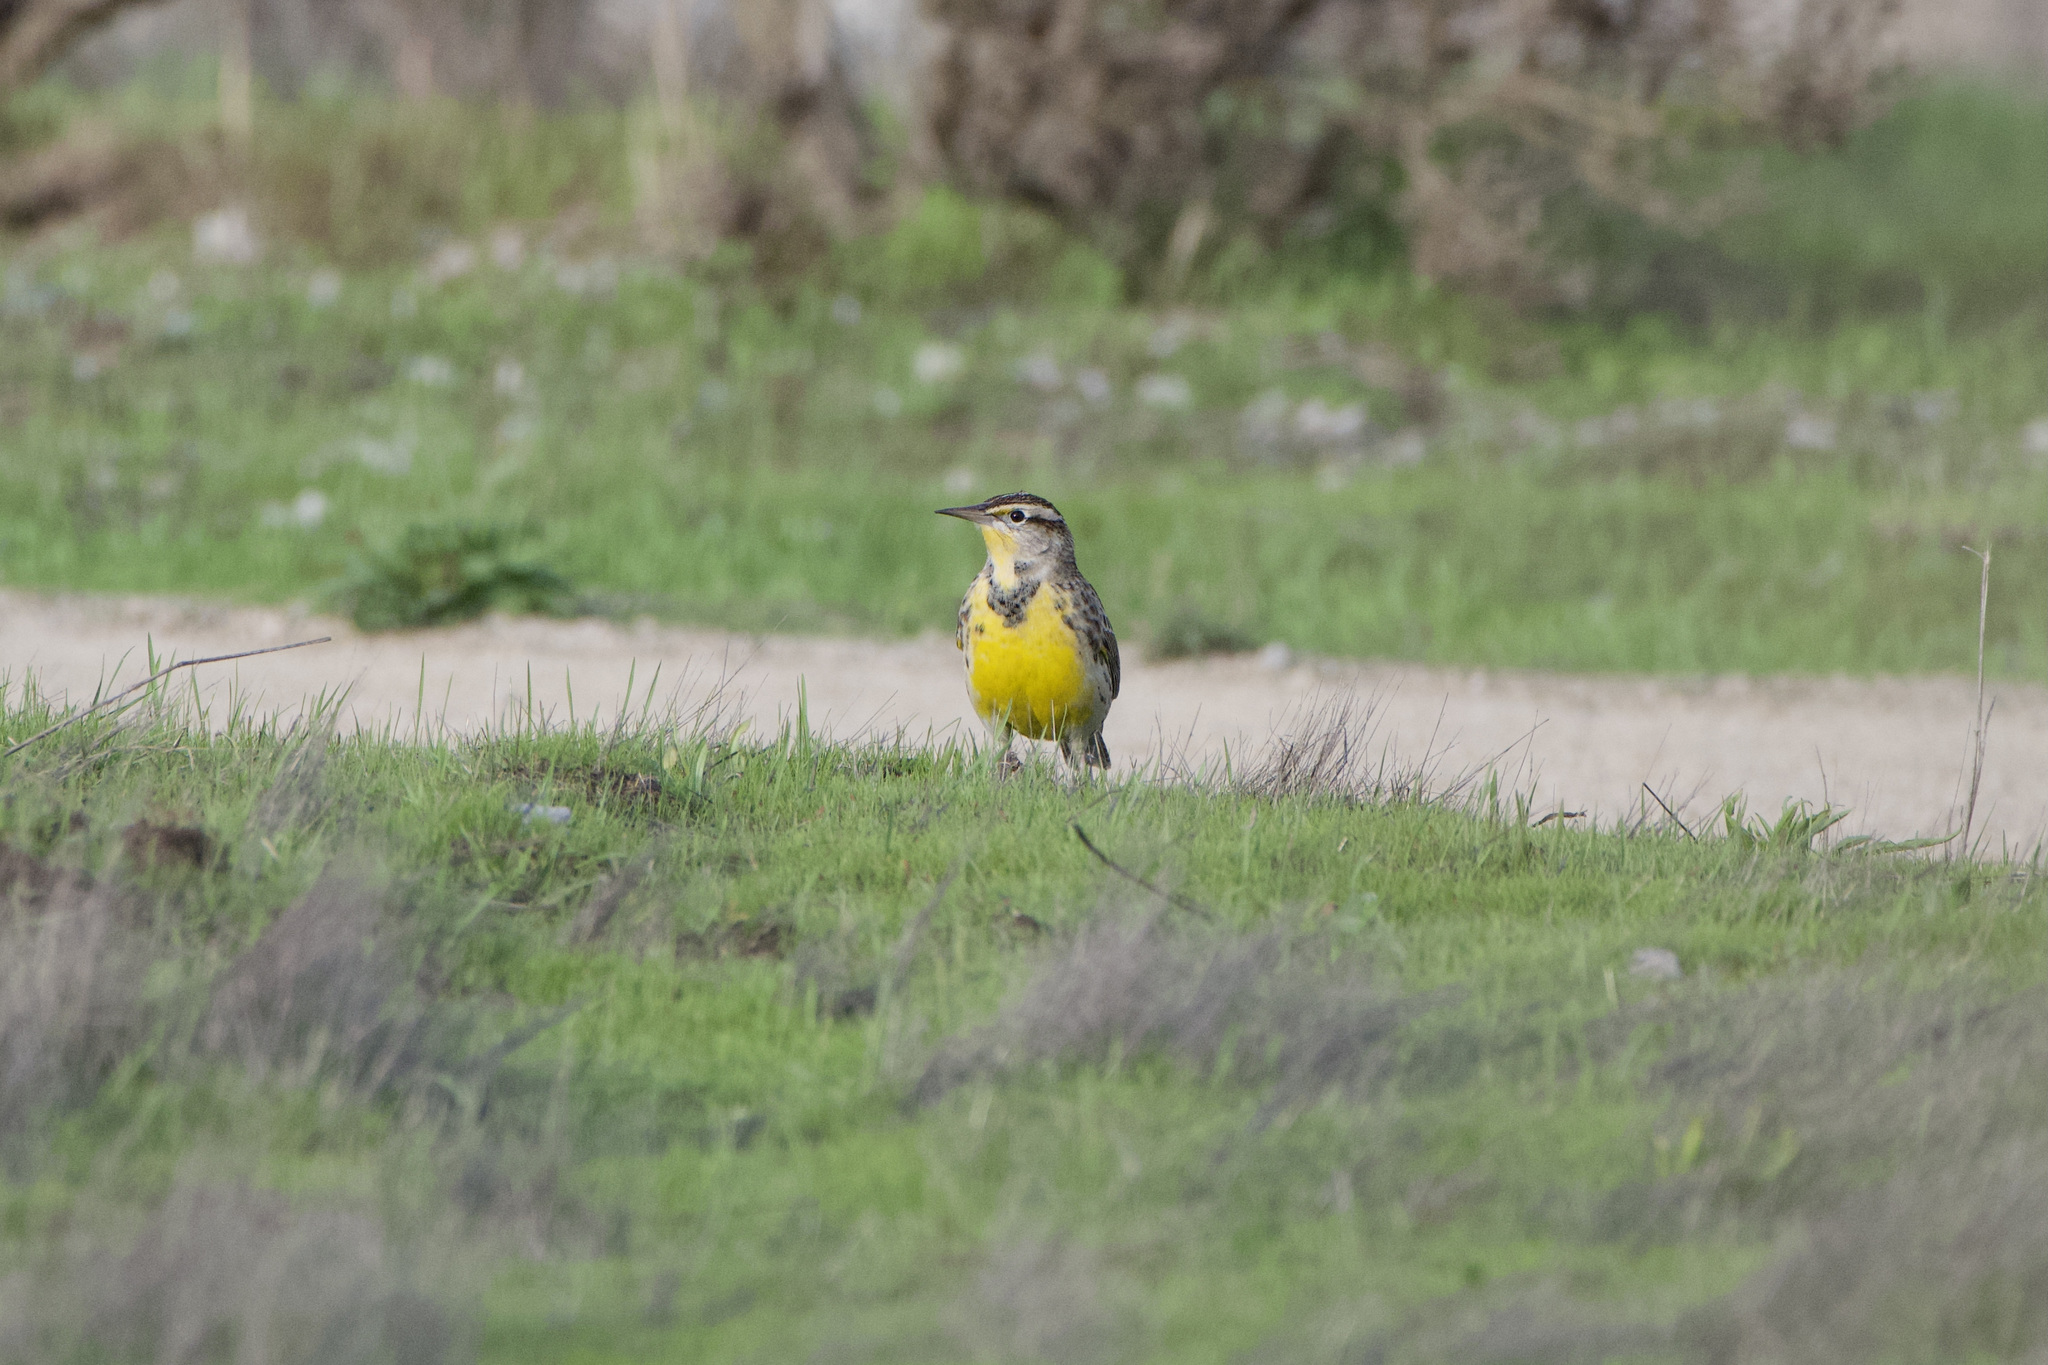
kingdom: Animalia
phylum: Chordata
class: Aves
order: Passeriformes
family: Icteridae
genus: Sturnella
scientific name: Sturnella neglecta
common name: Western meadowlark
